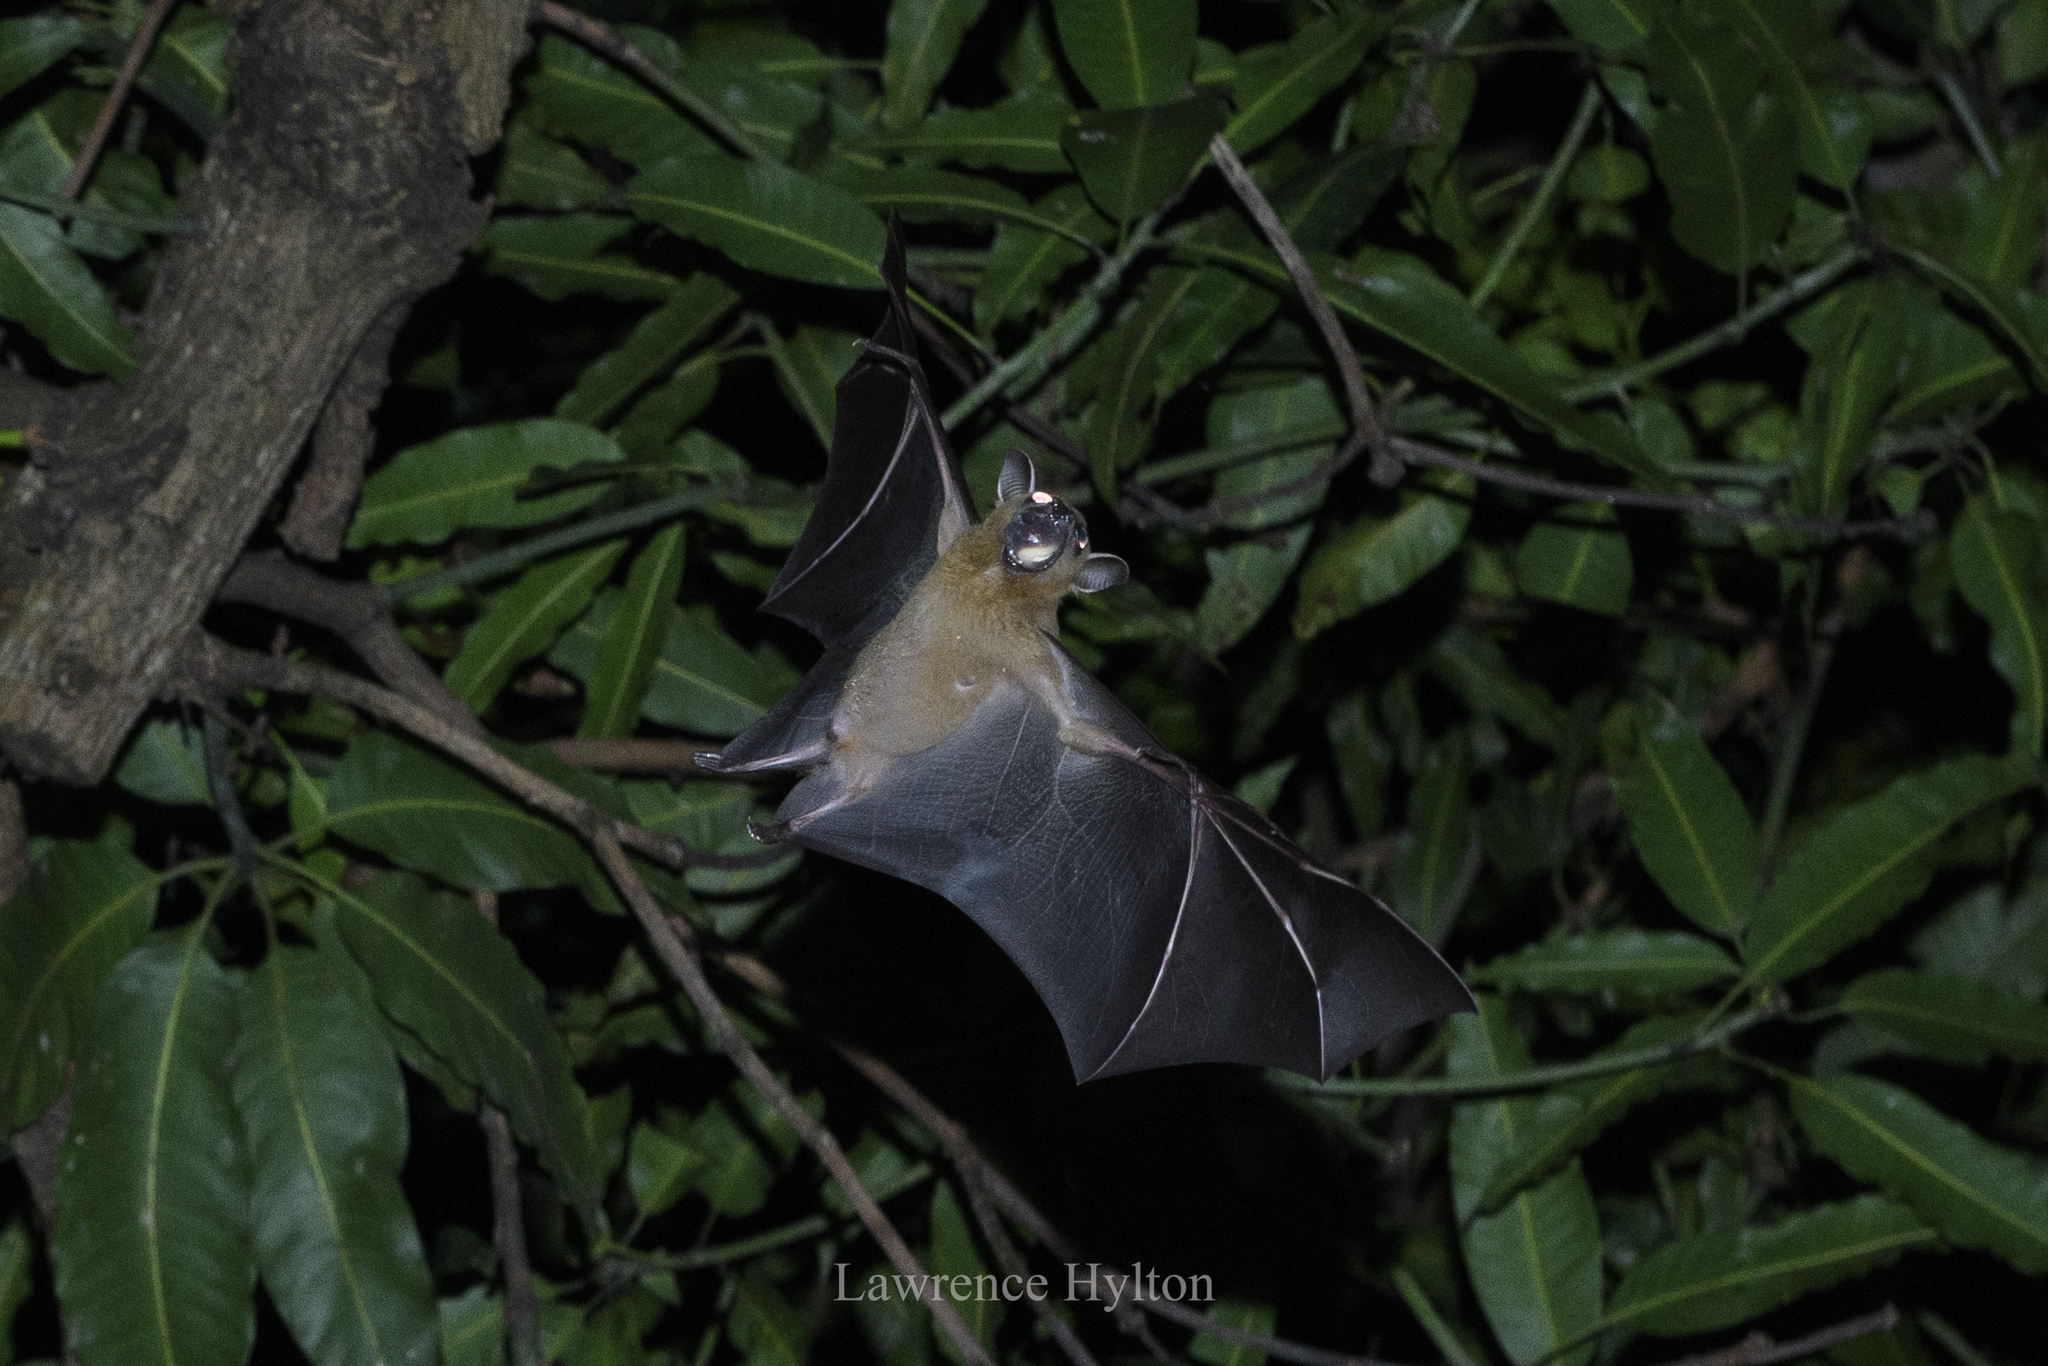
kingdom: Animalia
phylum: Chordata
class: Mammalia
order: Chiroptera
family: Pteropodidae
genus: Cynopterus
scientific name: Cynopterus sphinx
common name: Greater short-nosed fruit bat
